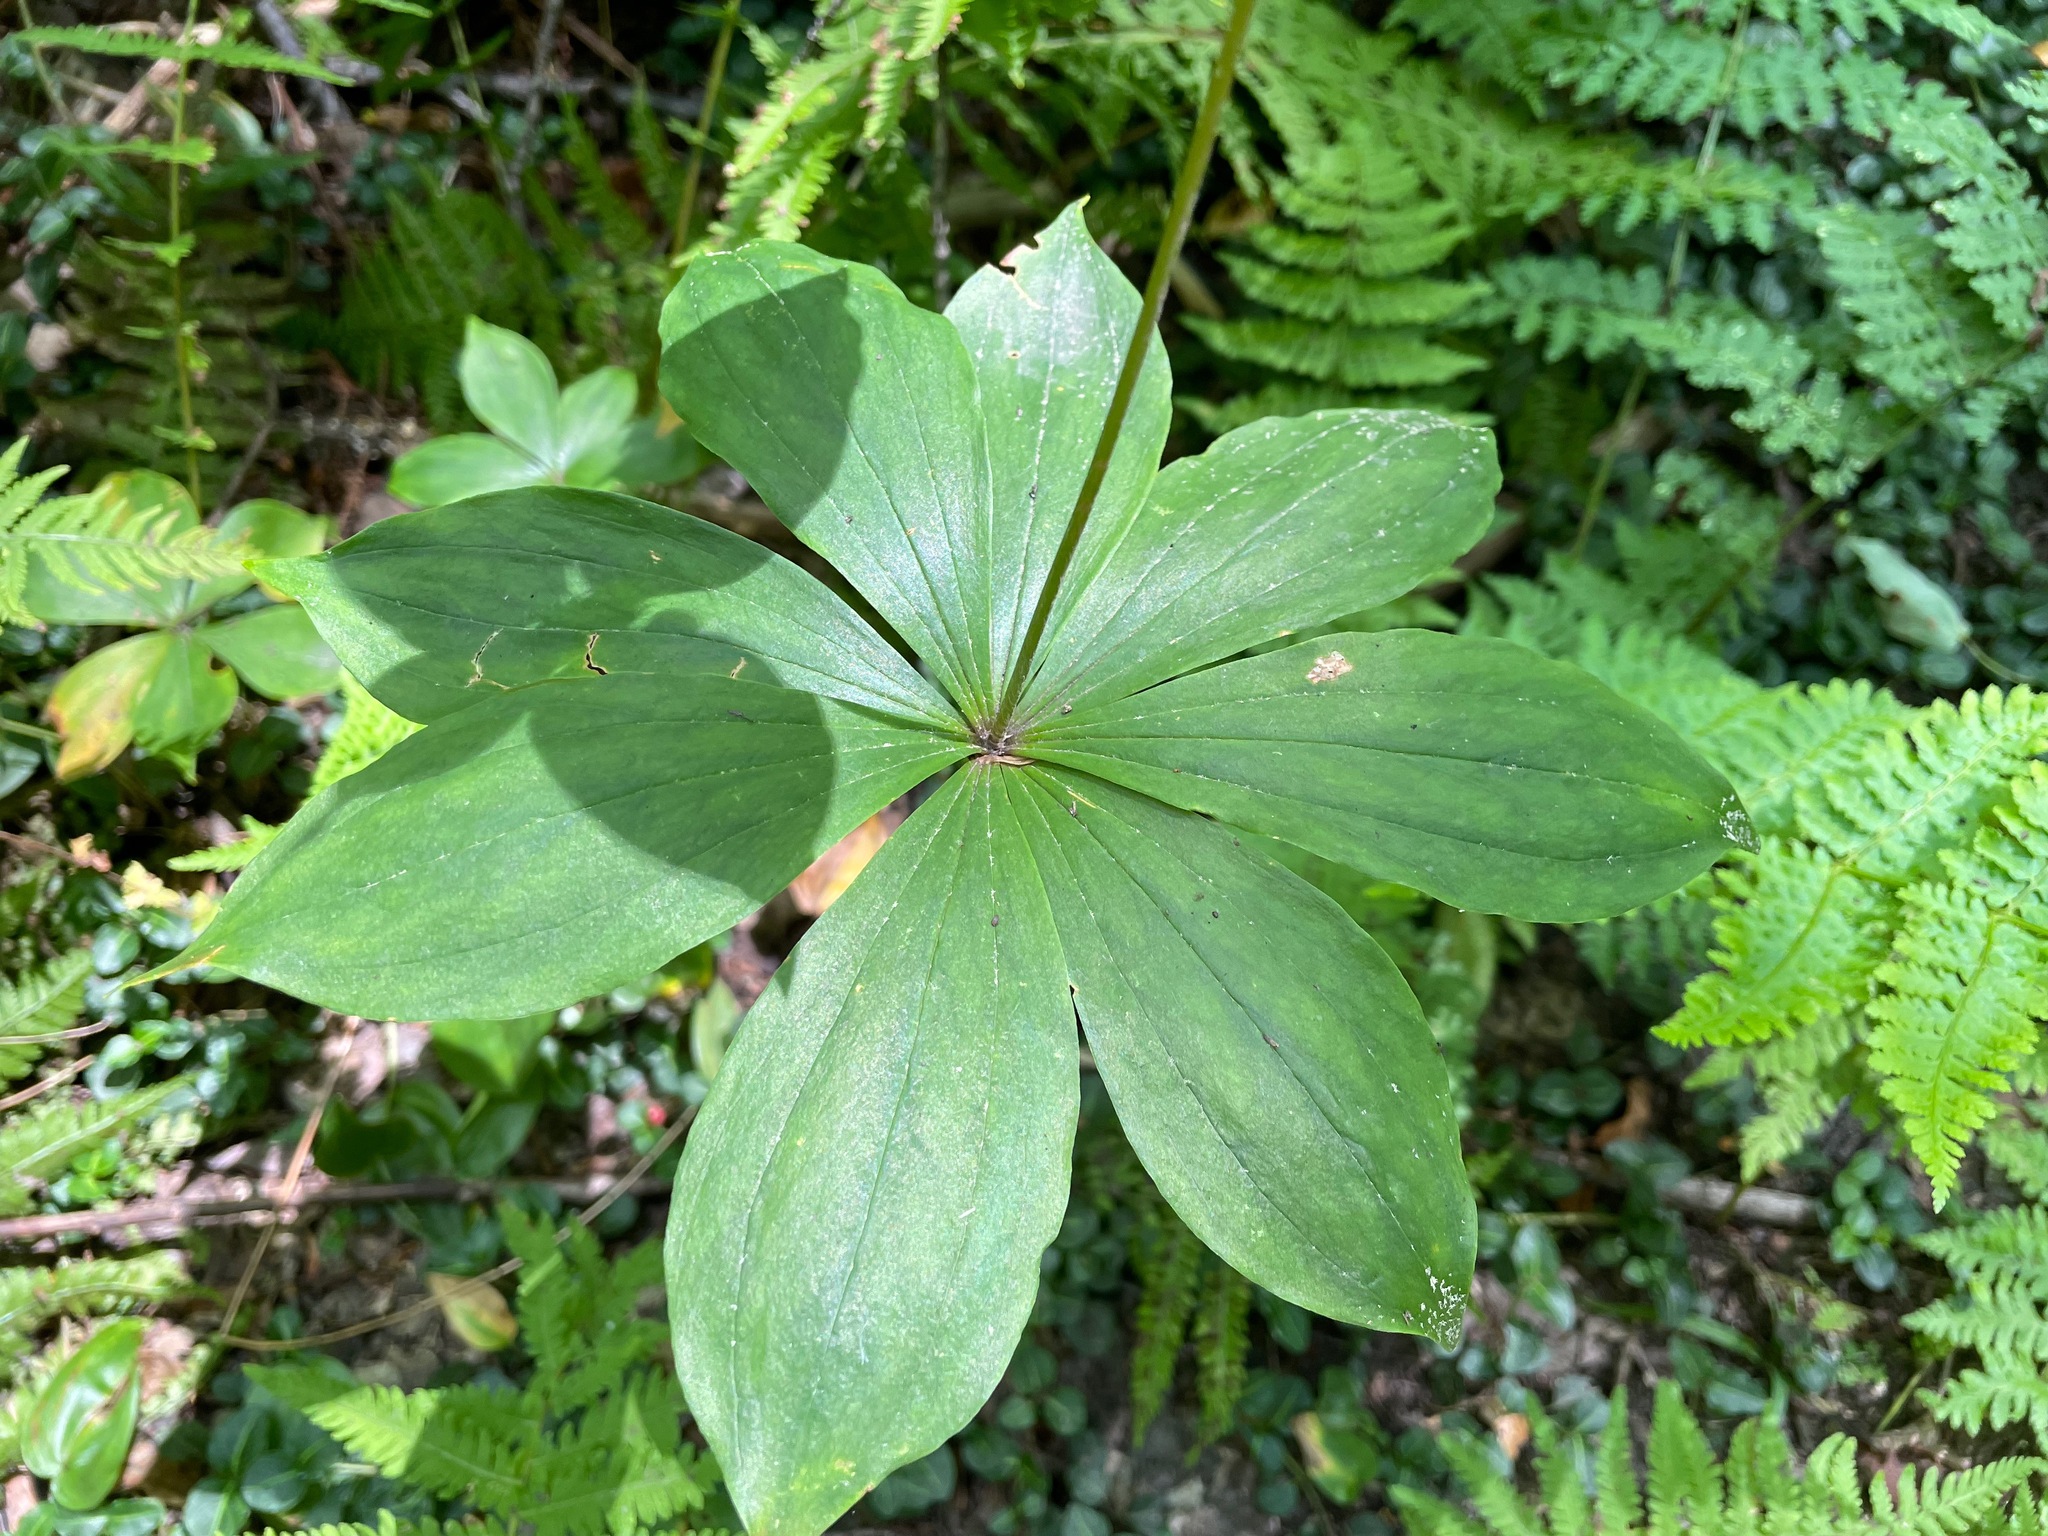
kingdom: Plantae
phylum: Tracheophyta
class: Liliopsida
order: Liliales
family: Liliaceae
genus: Medeola
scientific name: Medeola virginiana
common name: Indian cucumber-root
